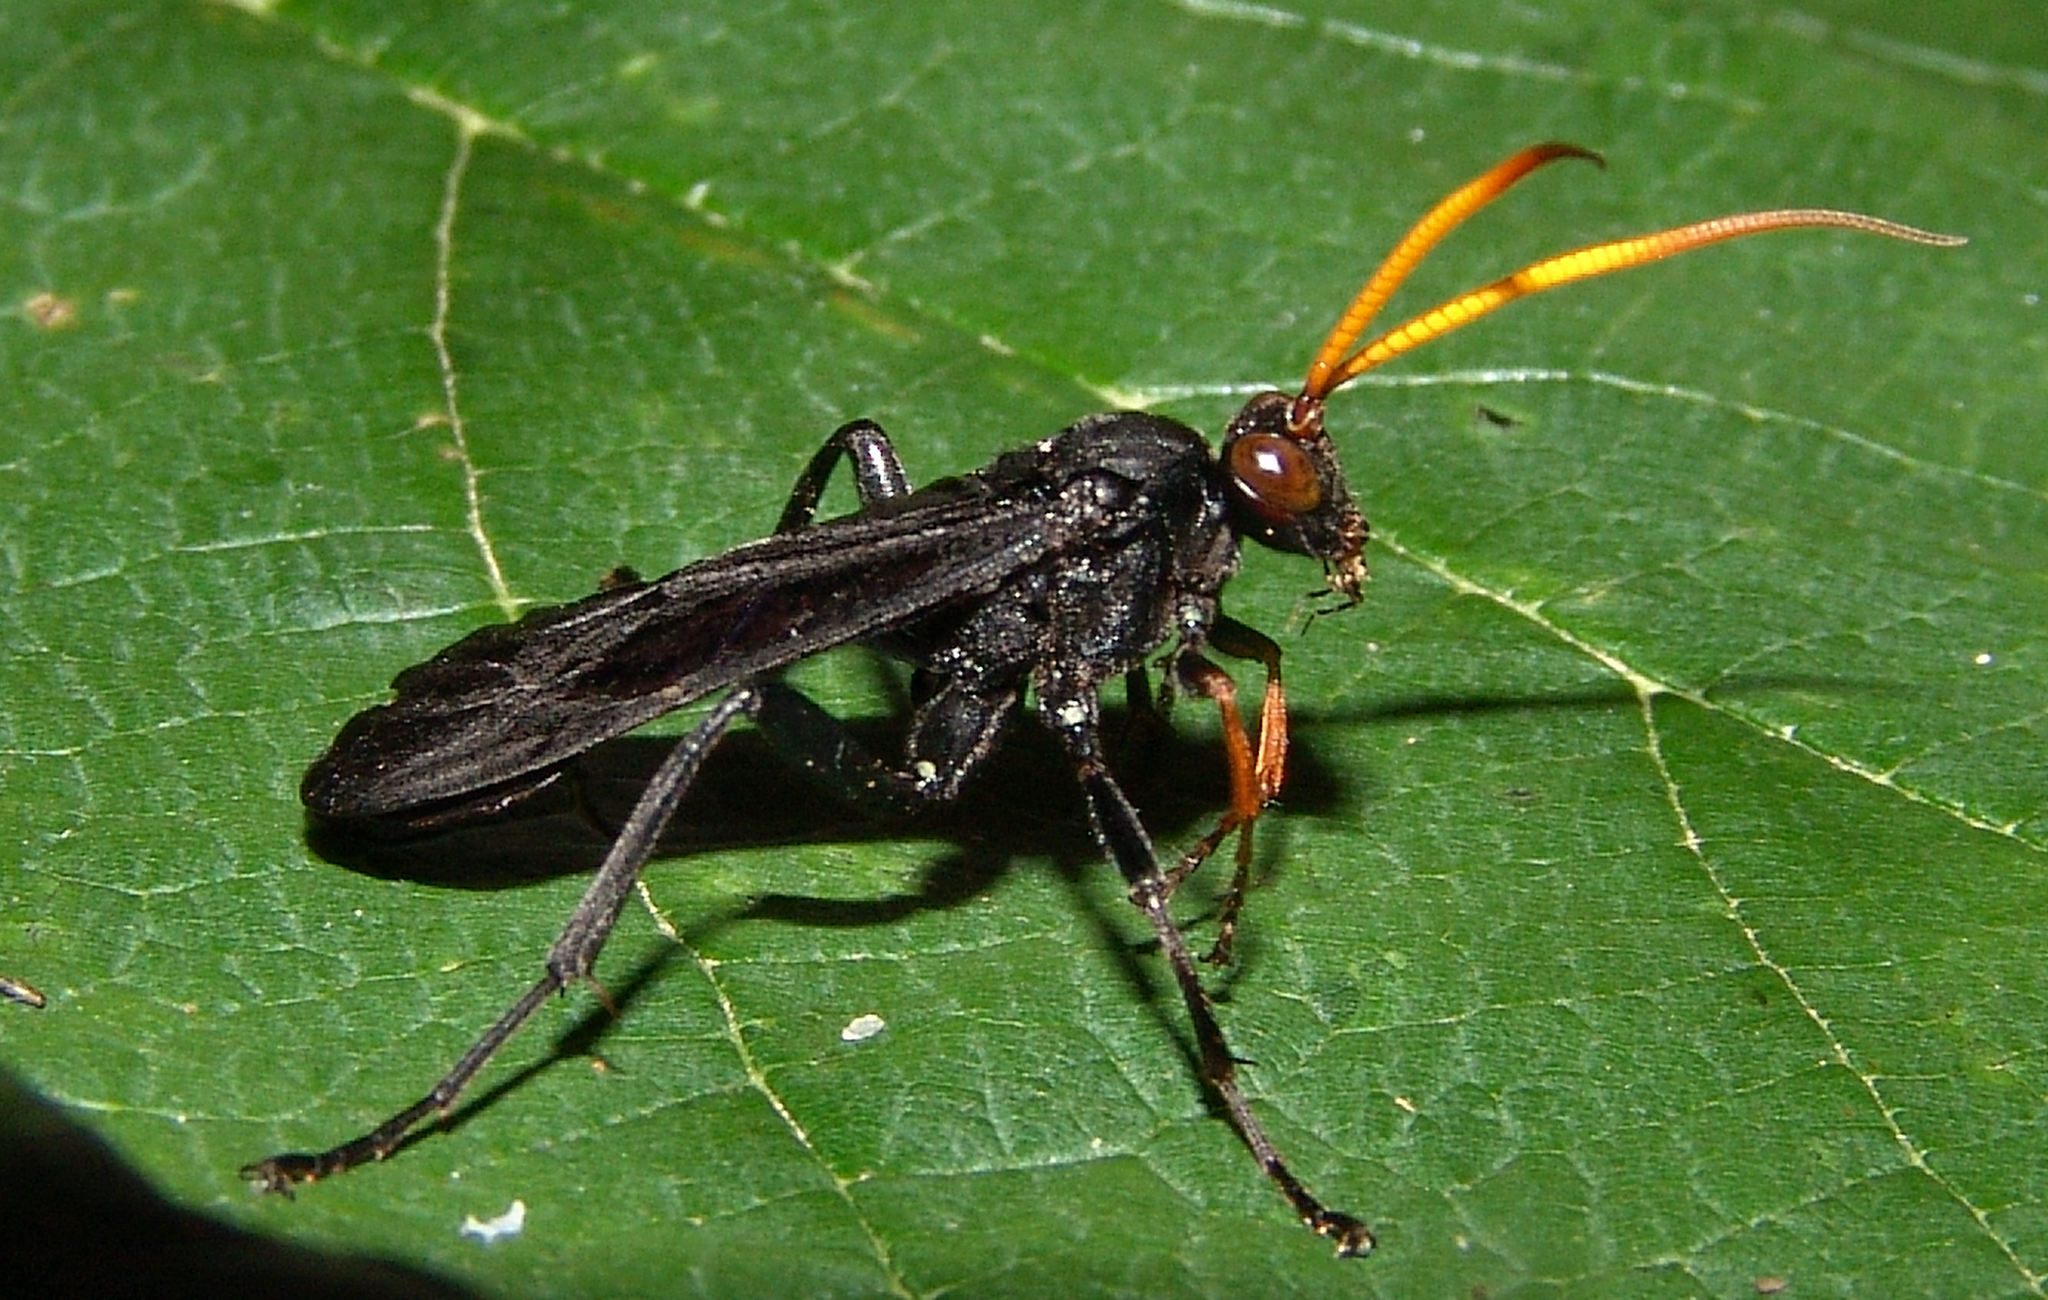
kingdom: Animalia
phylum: Arthropoda
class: Insecta
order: Hymenoptera
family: Ichneumonidae
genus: Gnamptopelta
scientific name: Gnamptopelta obsidianator
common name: Bent-shielded besieger wasp
